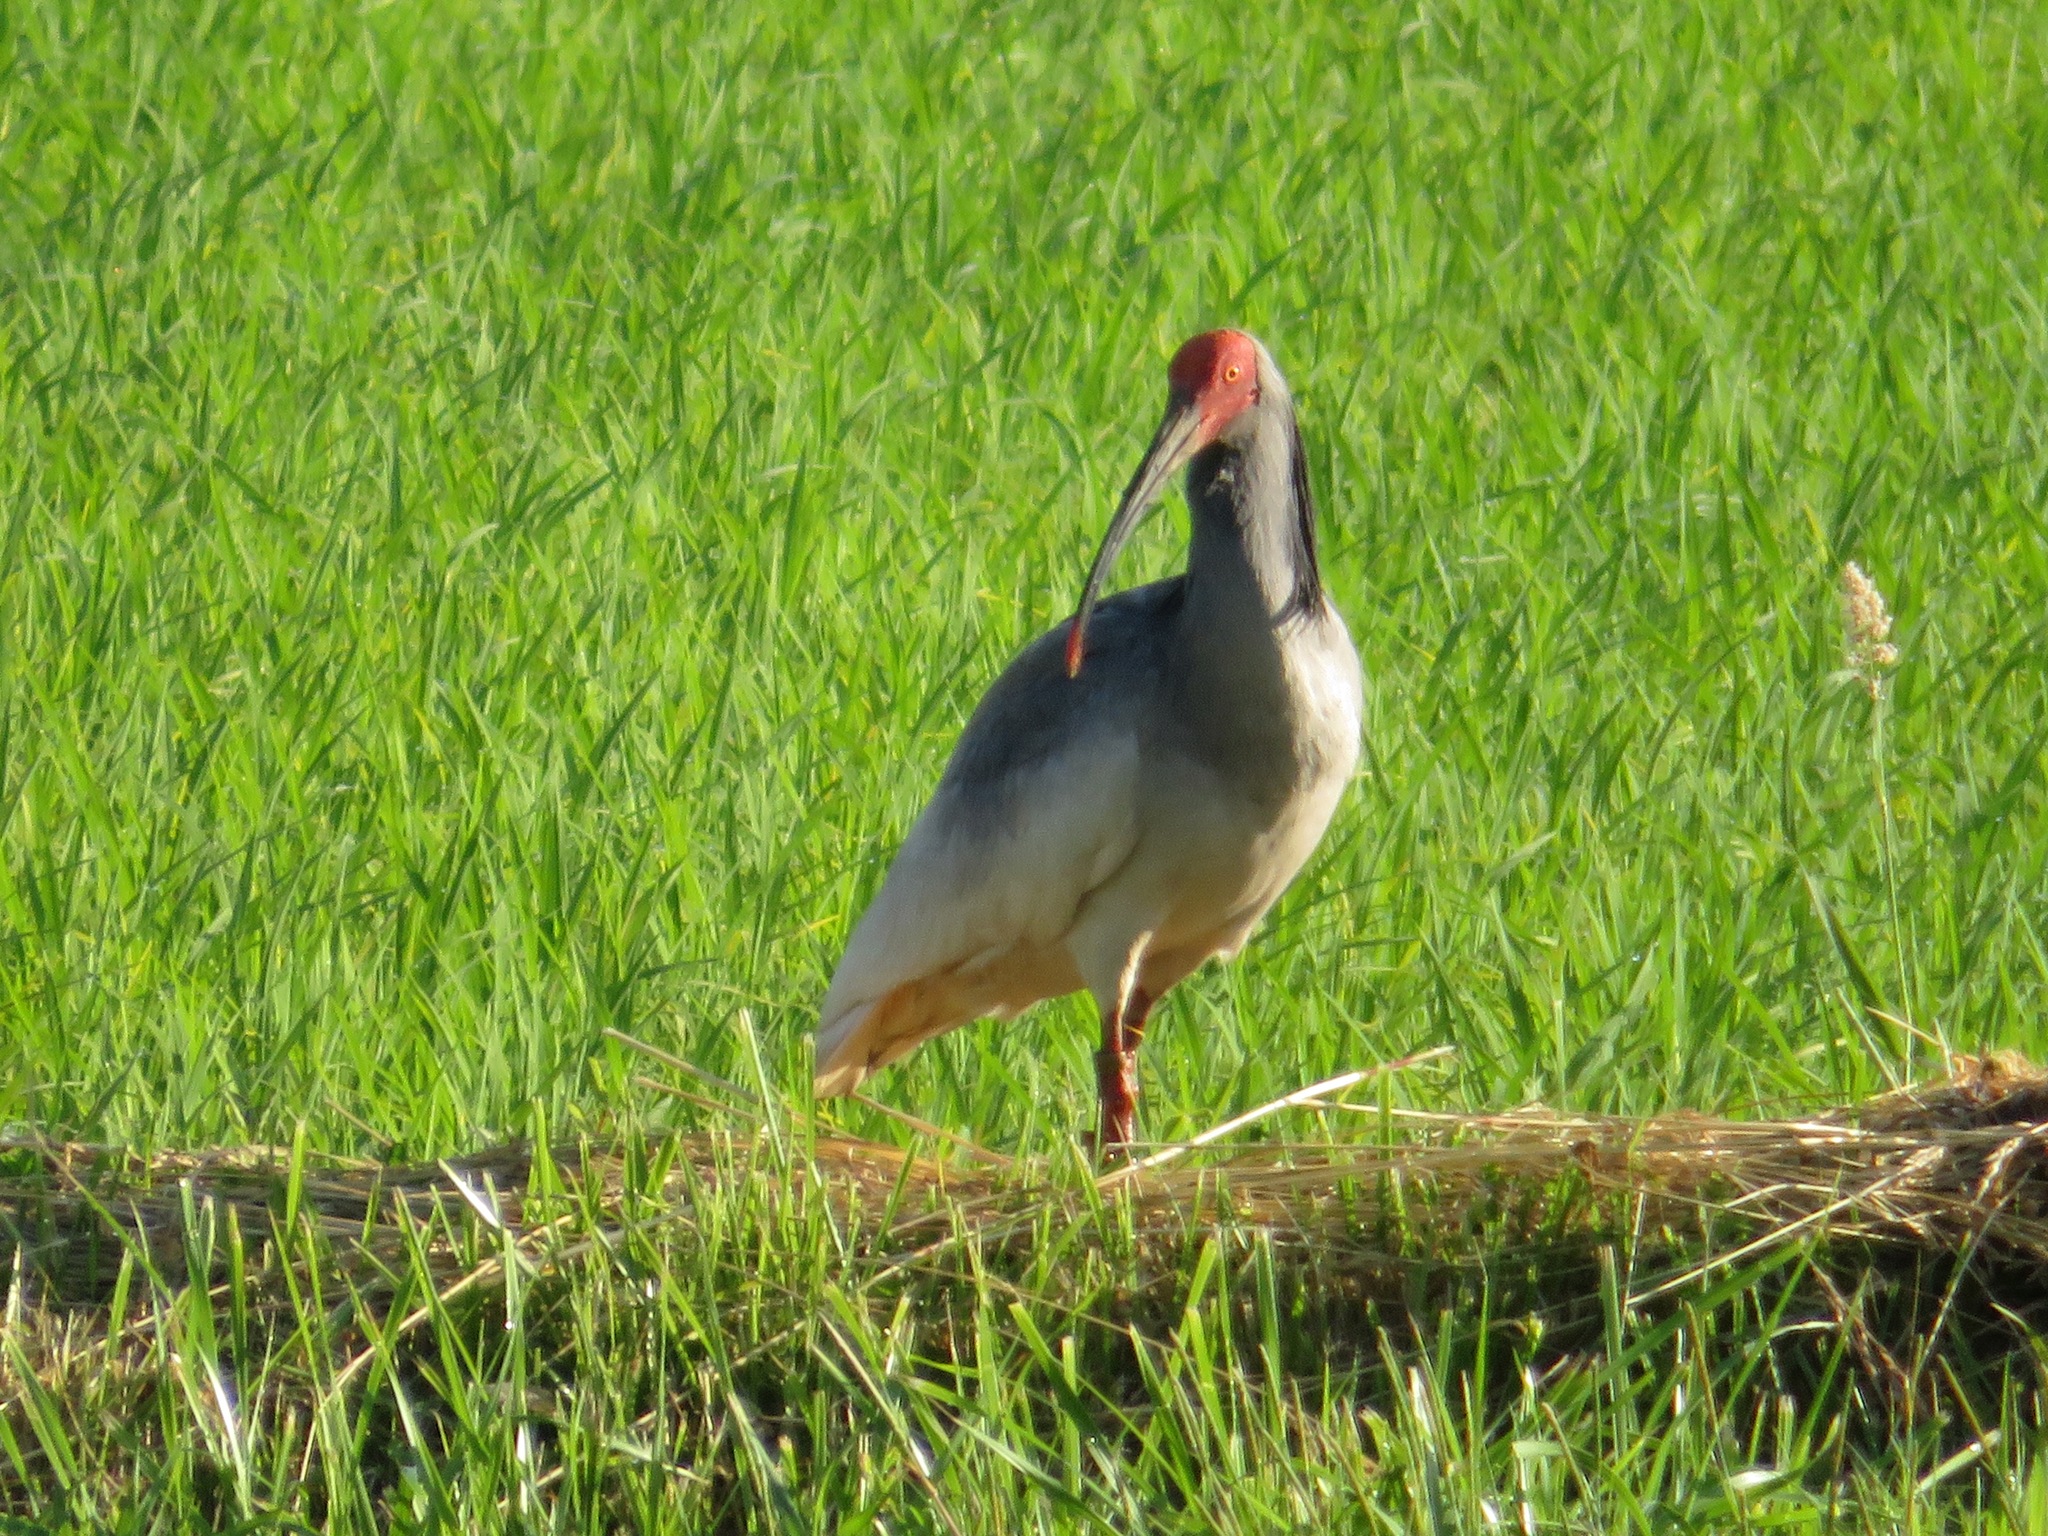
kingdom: Animalia
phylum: Chordata
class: Aves
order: Pelecaniformes
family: Threskiornithidae
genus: Nipponia
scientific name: Nipponia nippon
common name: Crested ibis
